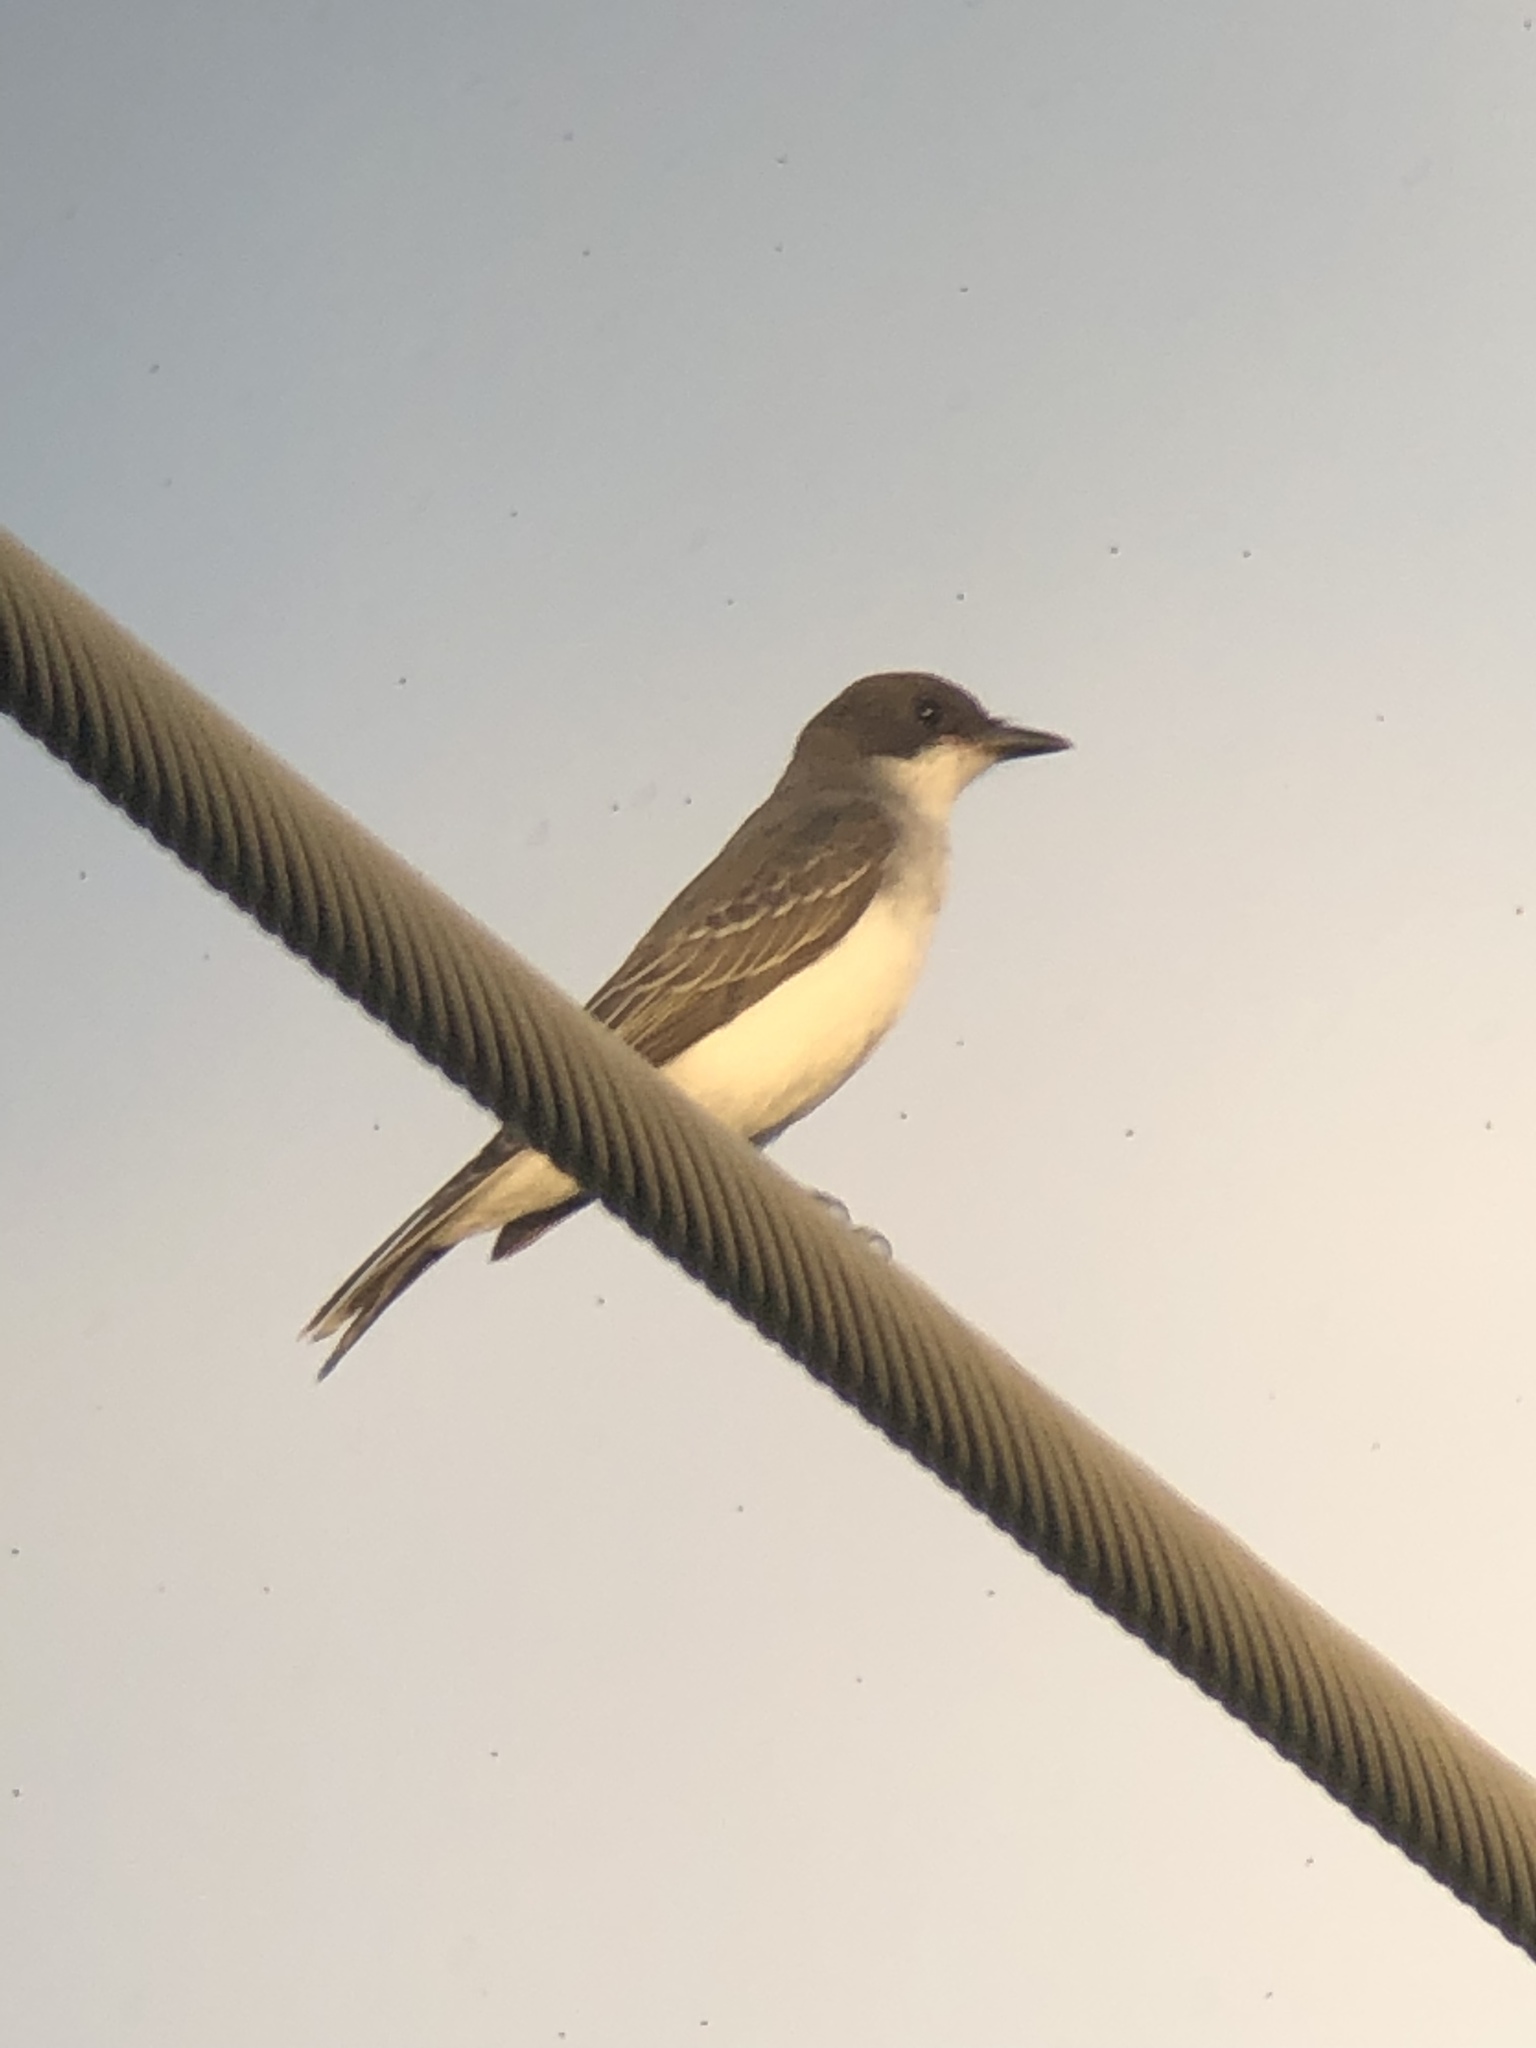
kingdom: Animalia
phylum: Chordata
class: Aves
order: Passeriformes
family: Tyrannidae
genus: Tyrannus
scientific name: Tyrannus tyrannus
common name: Eastern kingbird
